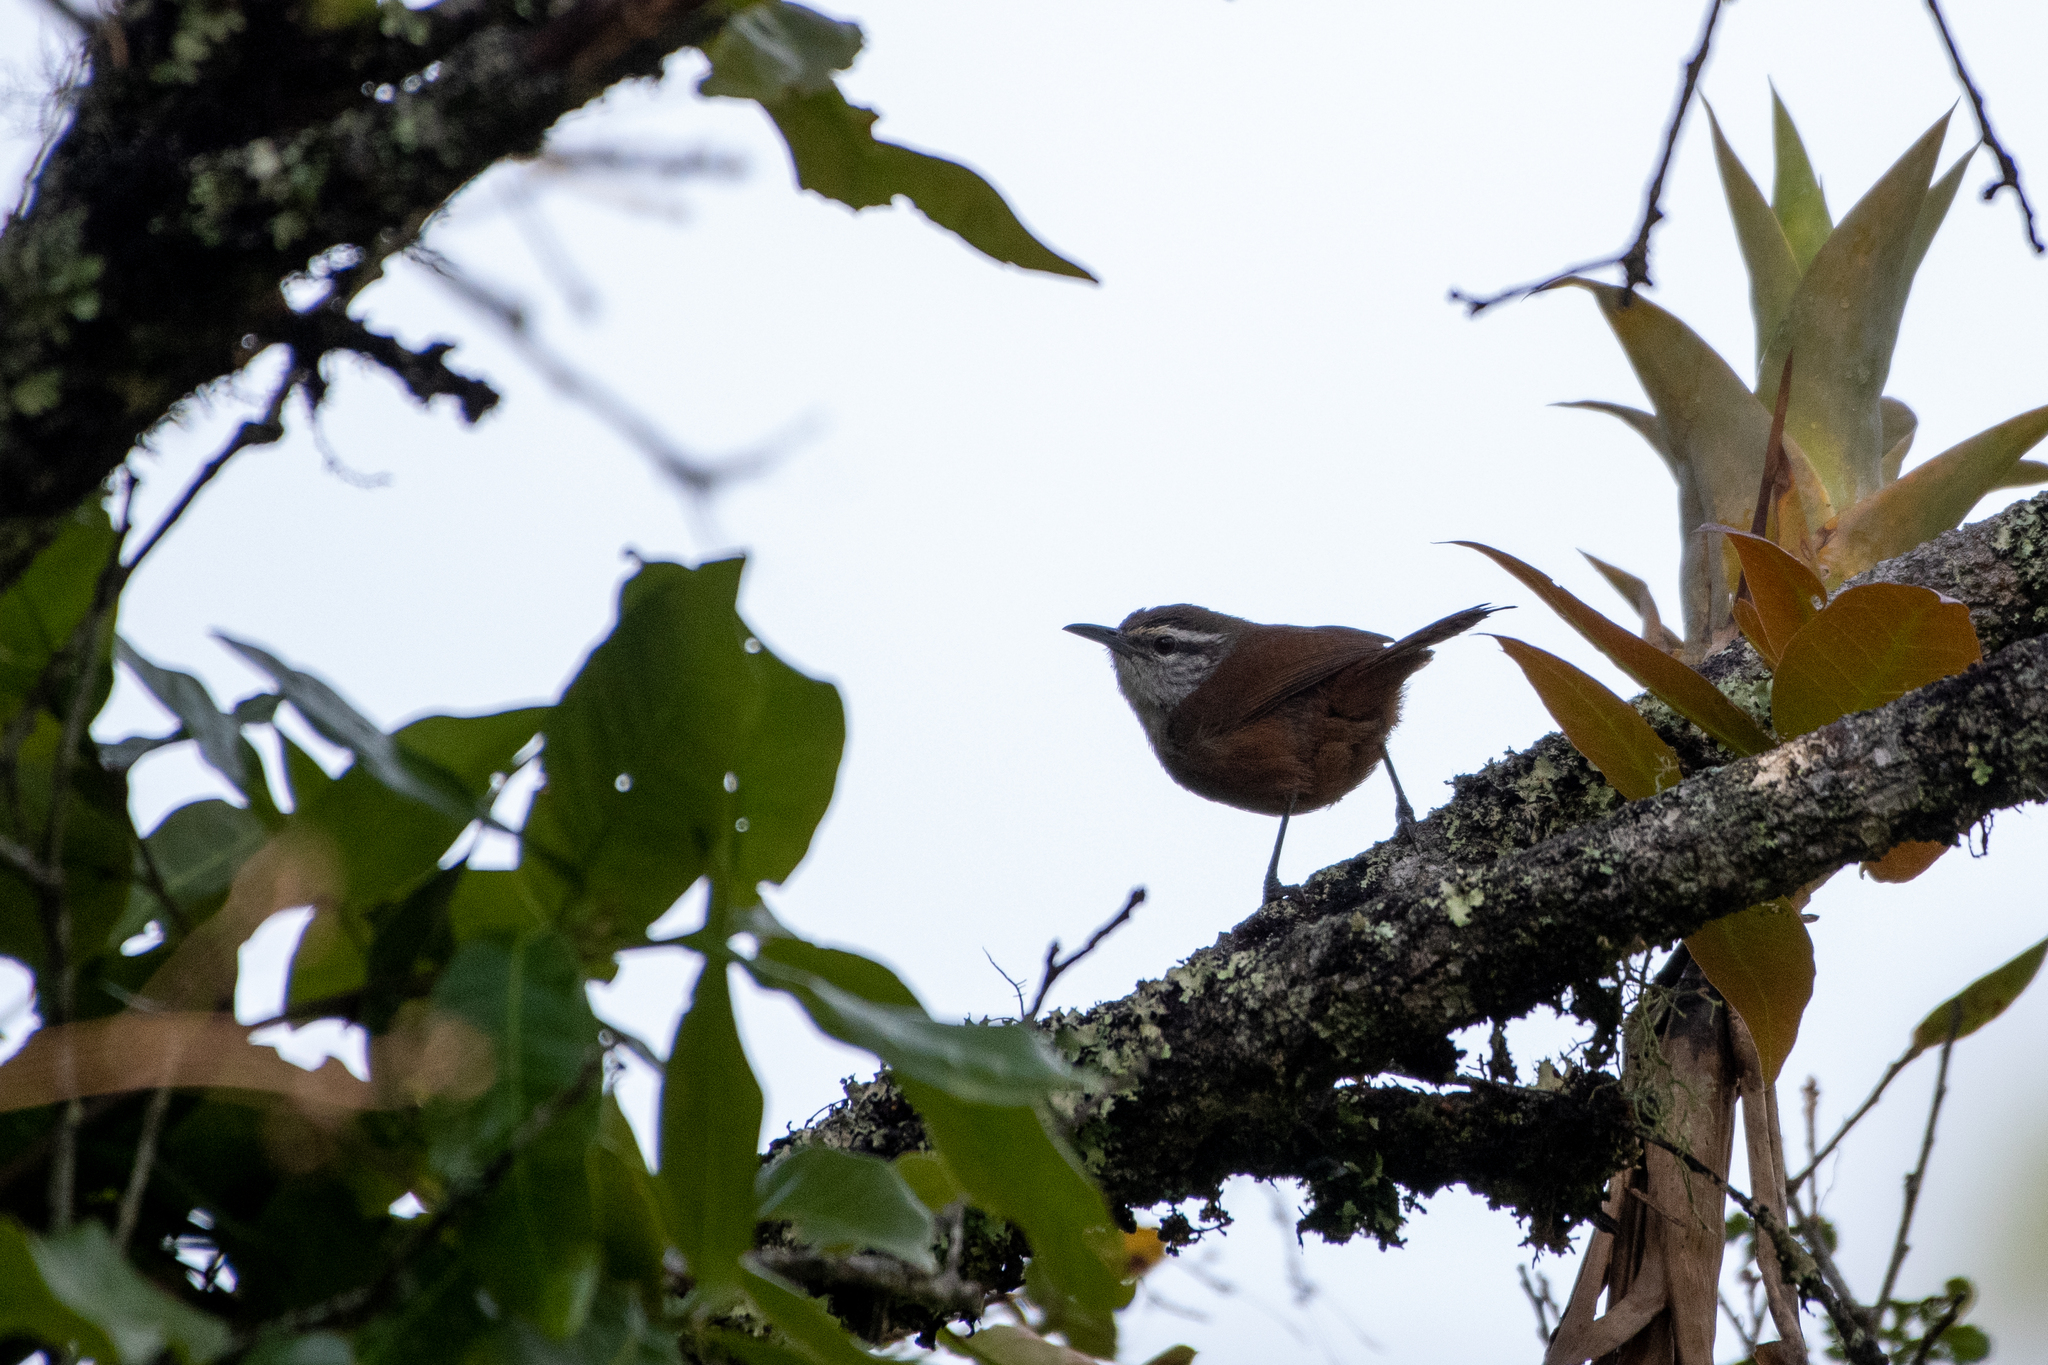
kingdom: Animalia
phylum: Chordata
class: Aves
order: Passeriformes
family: Troglodytidae
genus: Cantorchilus
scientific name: Cantorchilus modestus
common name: Cabanis's wren
